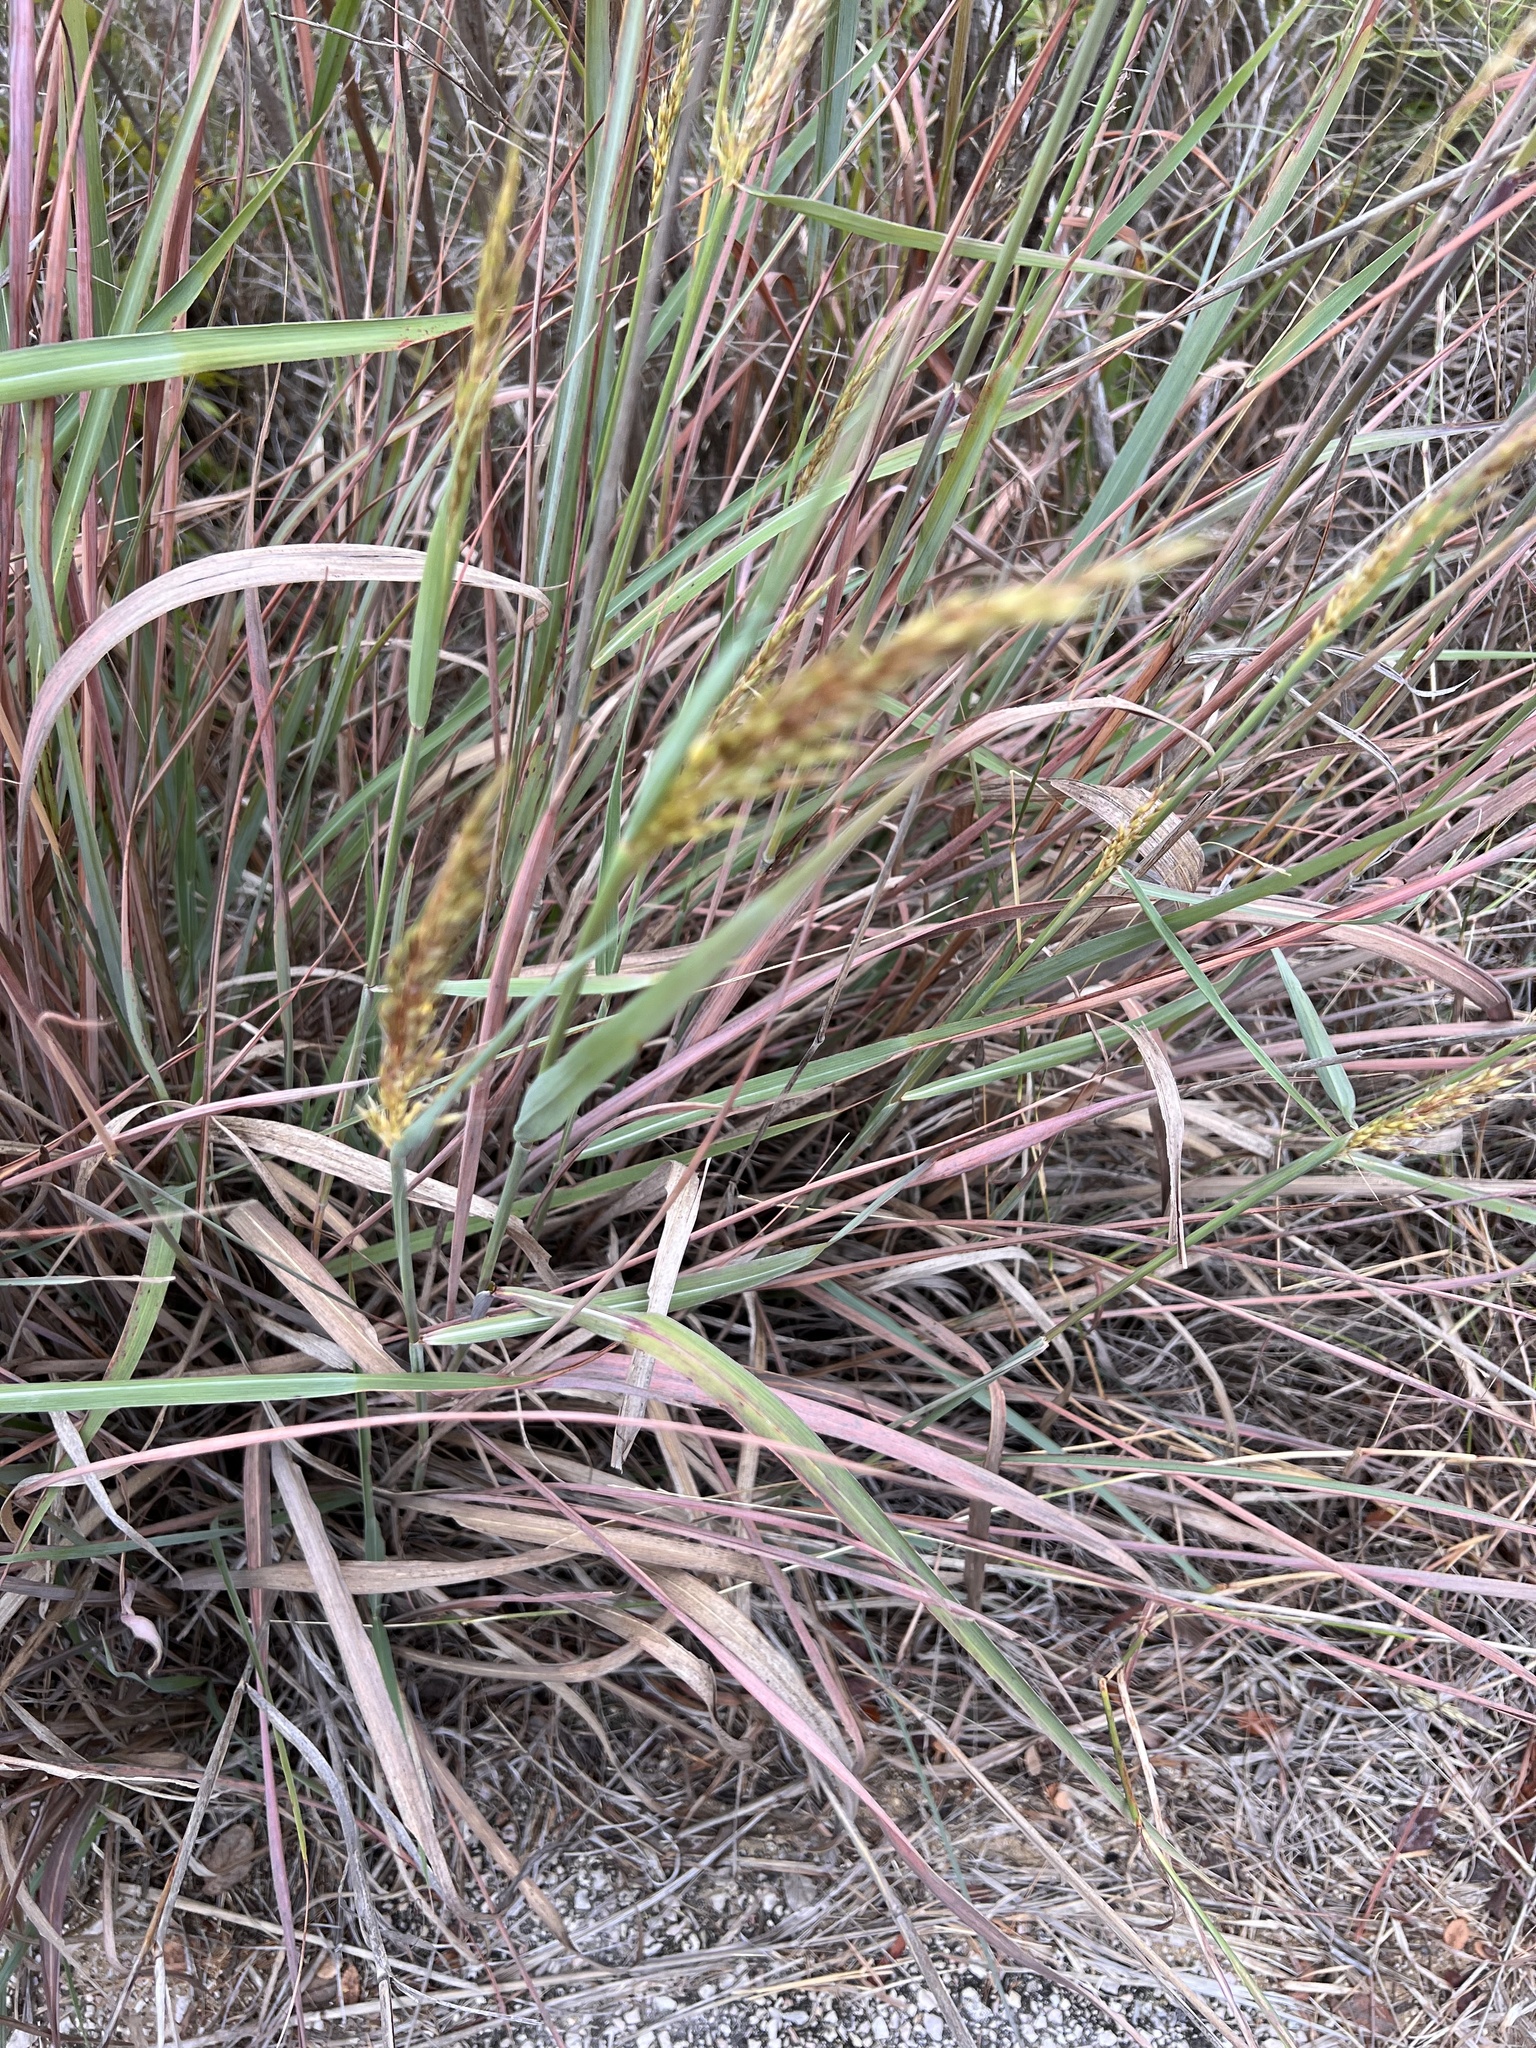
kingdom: Plantae
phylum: Tracheophyta
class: Liliopsida
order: Poales
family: Poaceae
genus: Sorghastrum
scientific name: Sorghastrum nutans
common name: Indian grass
